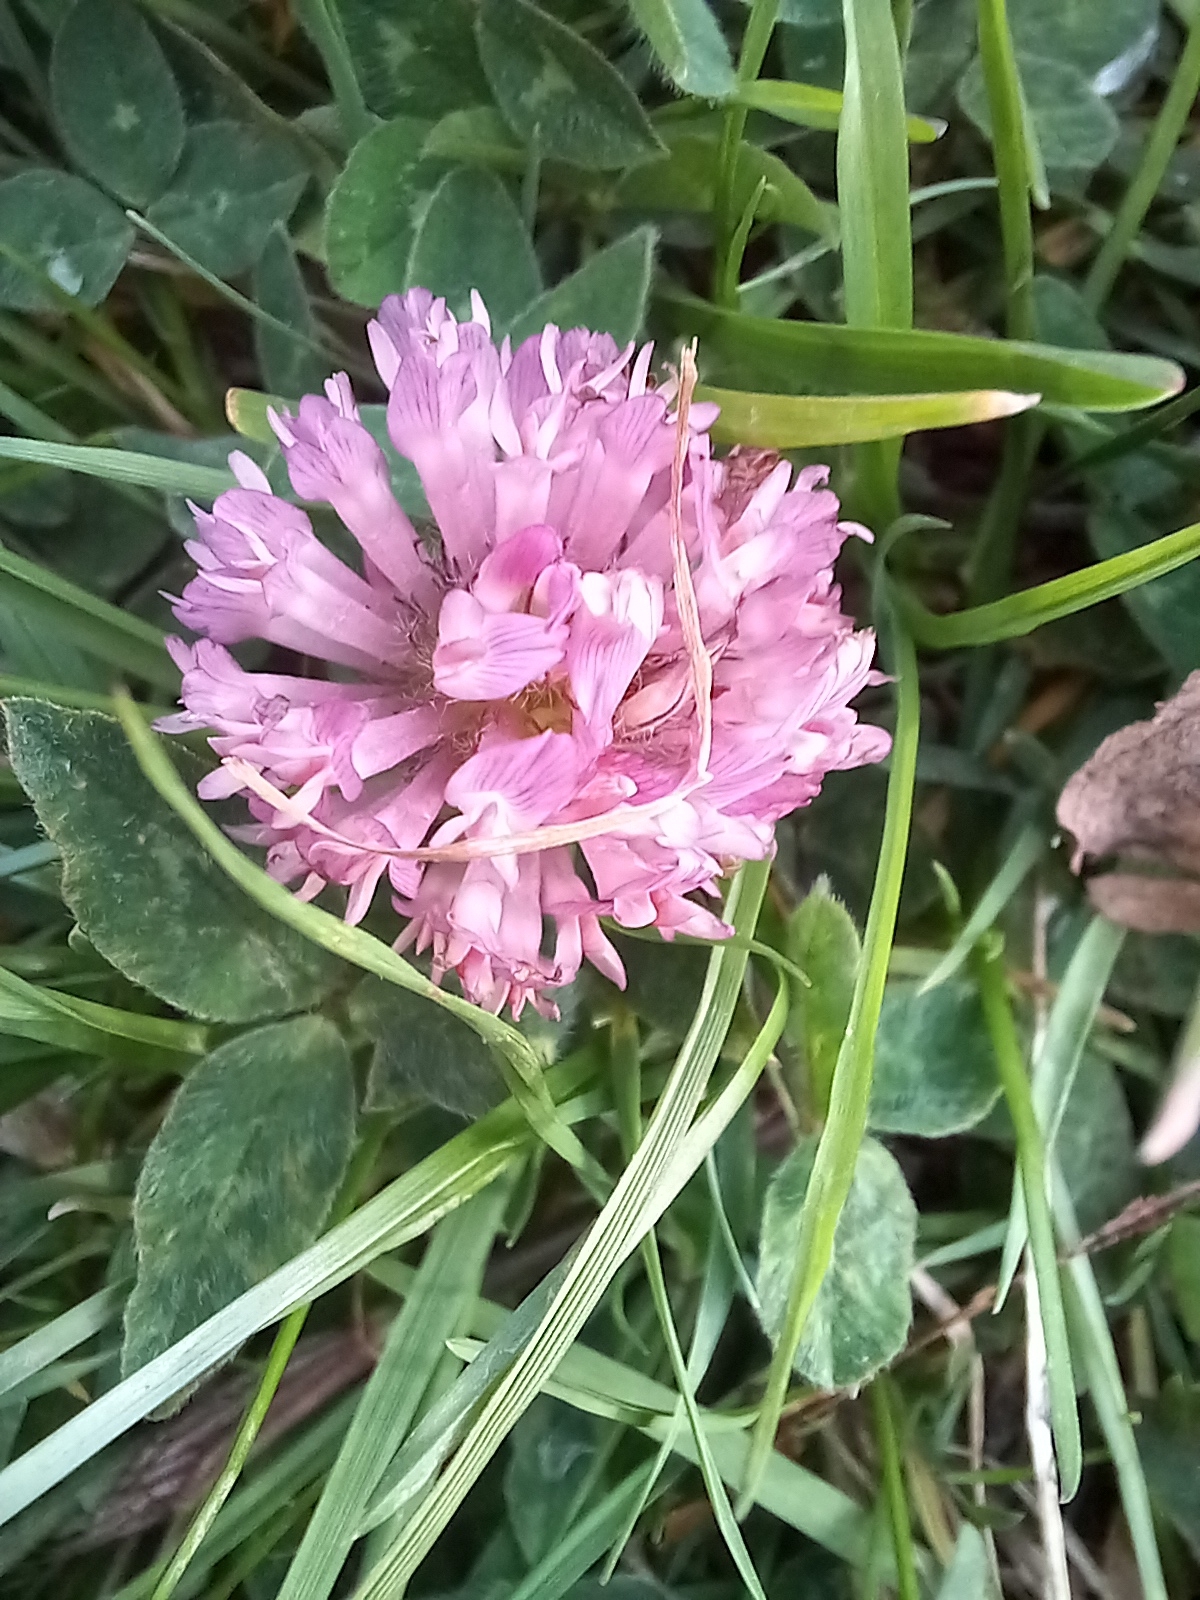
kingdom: Plantae
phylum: Tracheophyta
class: Magnoliopsida
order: Fabales
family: Fabaceae
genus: Trifolium
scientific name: Trifolium pratense
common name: Red clover
